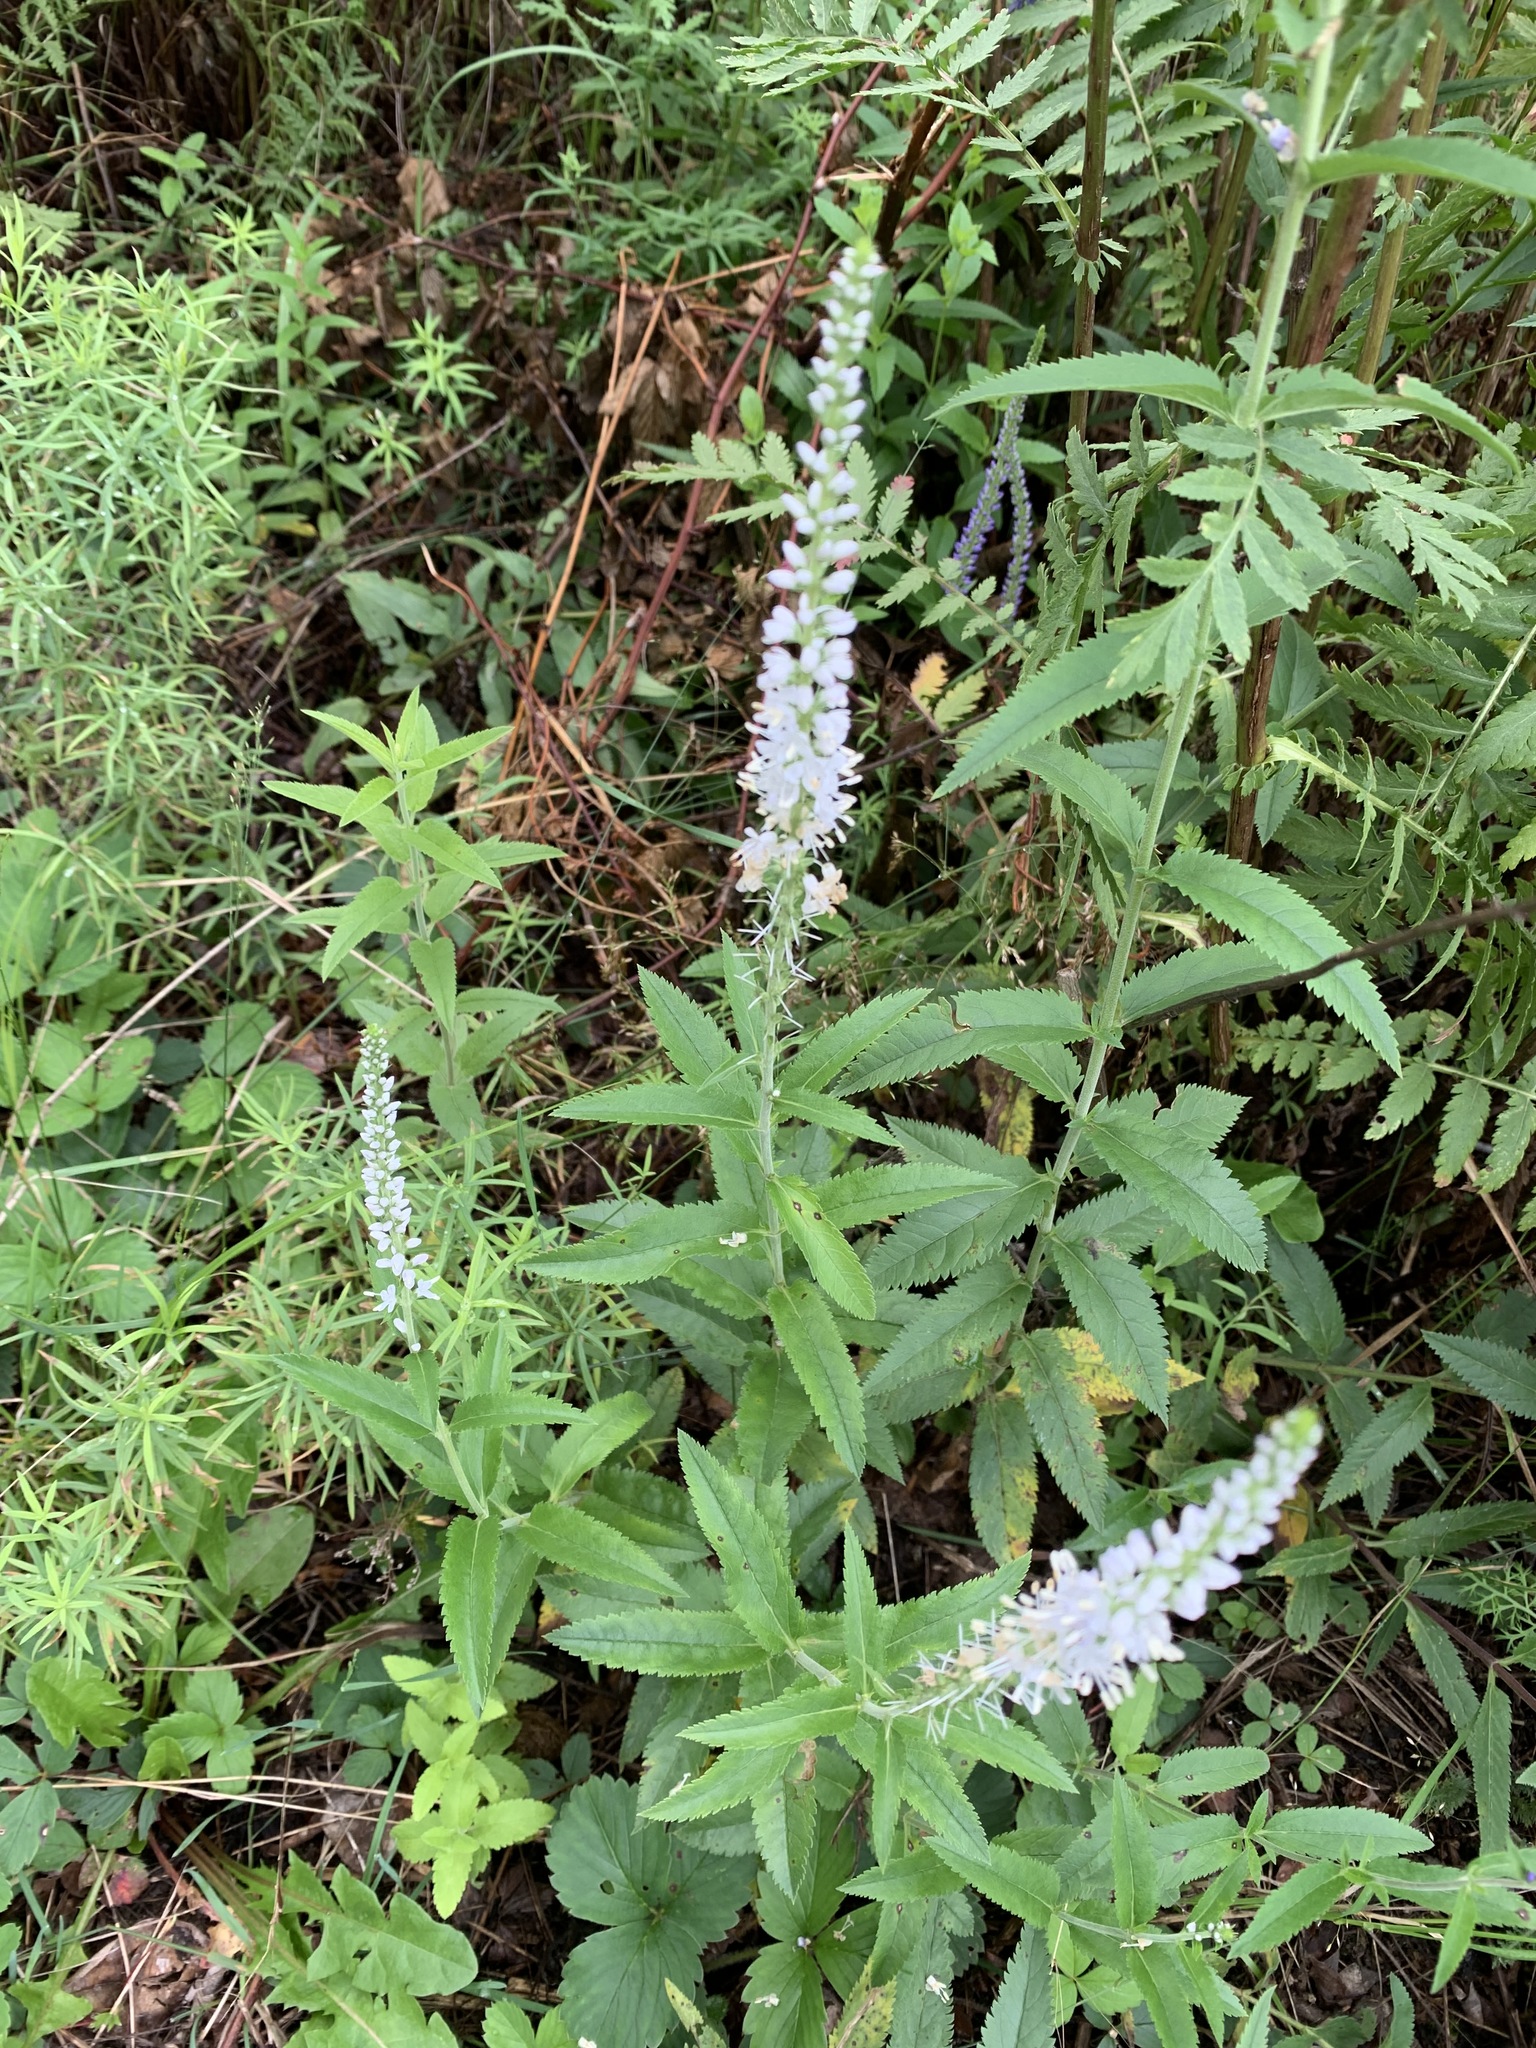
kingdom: Plantae
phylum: Tracheophyta
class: Magnoliopsida
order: Lamiales
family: Plantaginaceae
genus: Veronica
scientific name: Veronica longifolia
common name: Garden speedwell
